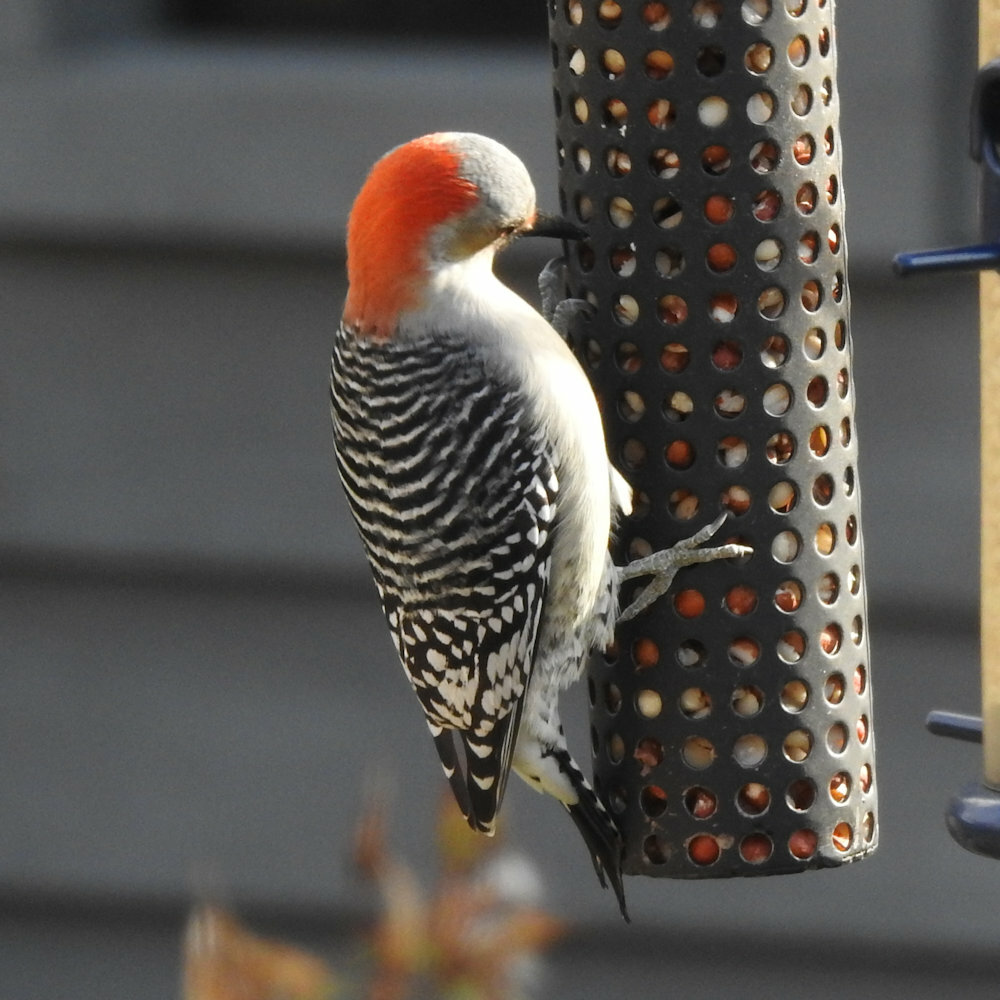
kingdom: Animalia
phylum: Chordata
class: Aves
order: Piciformes
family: Picidae
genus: Melanerpes
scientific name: Melanerpes carolinus
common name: Red-bellied woodpecker
